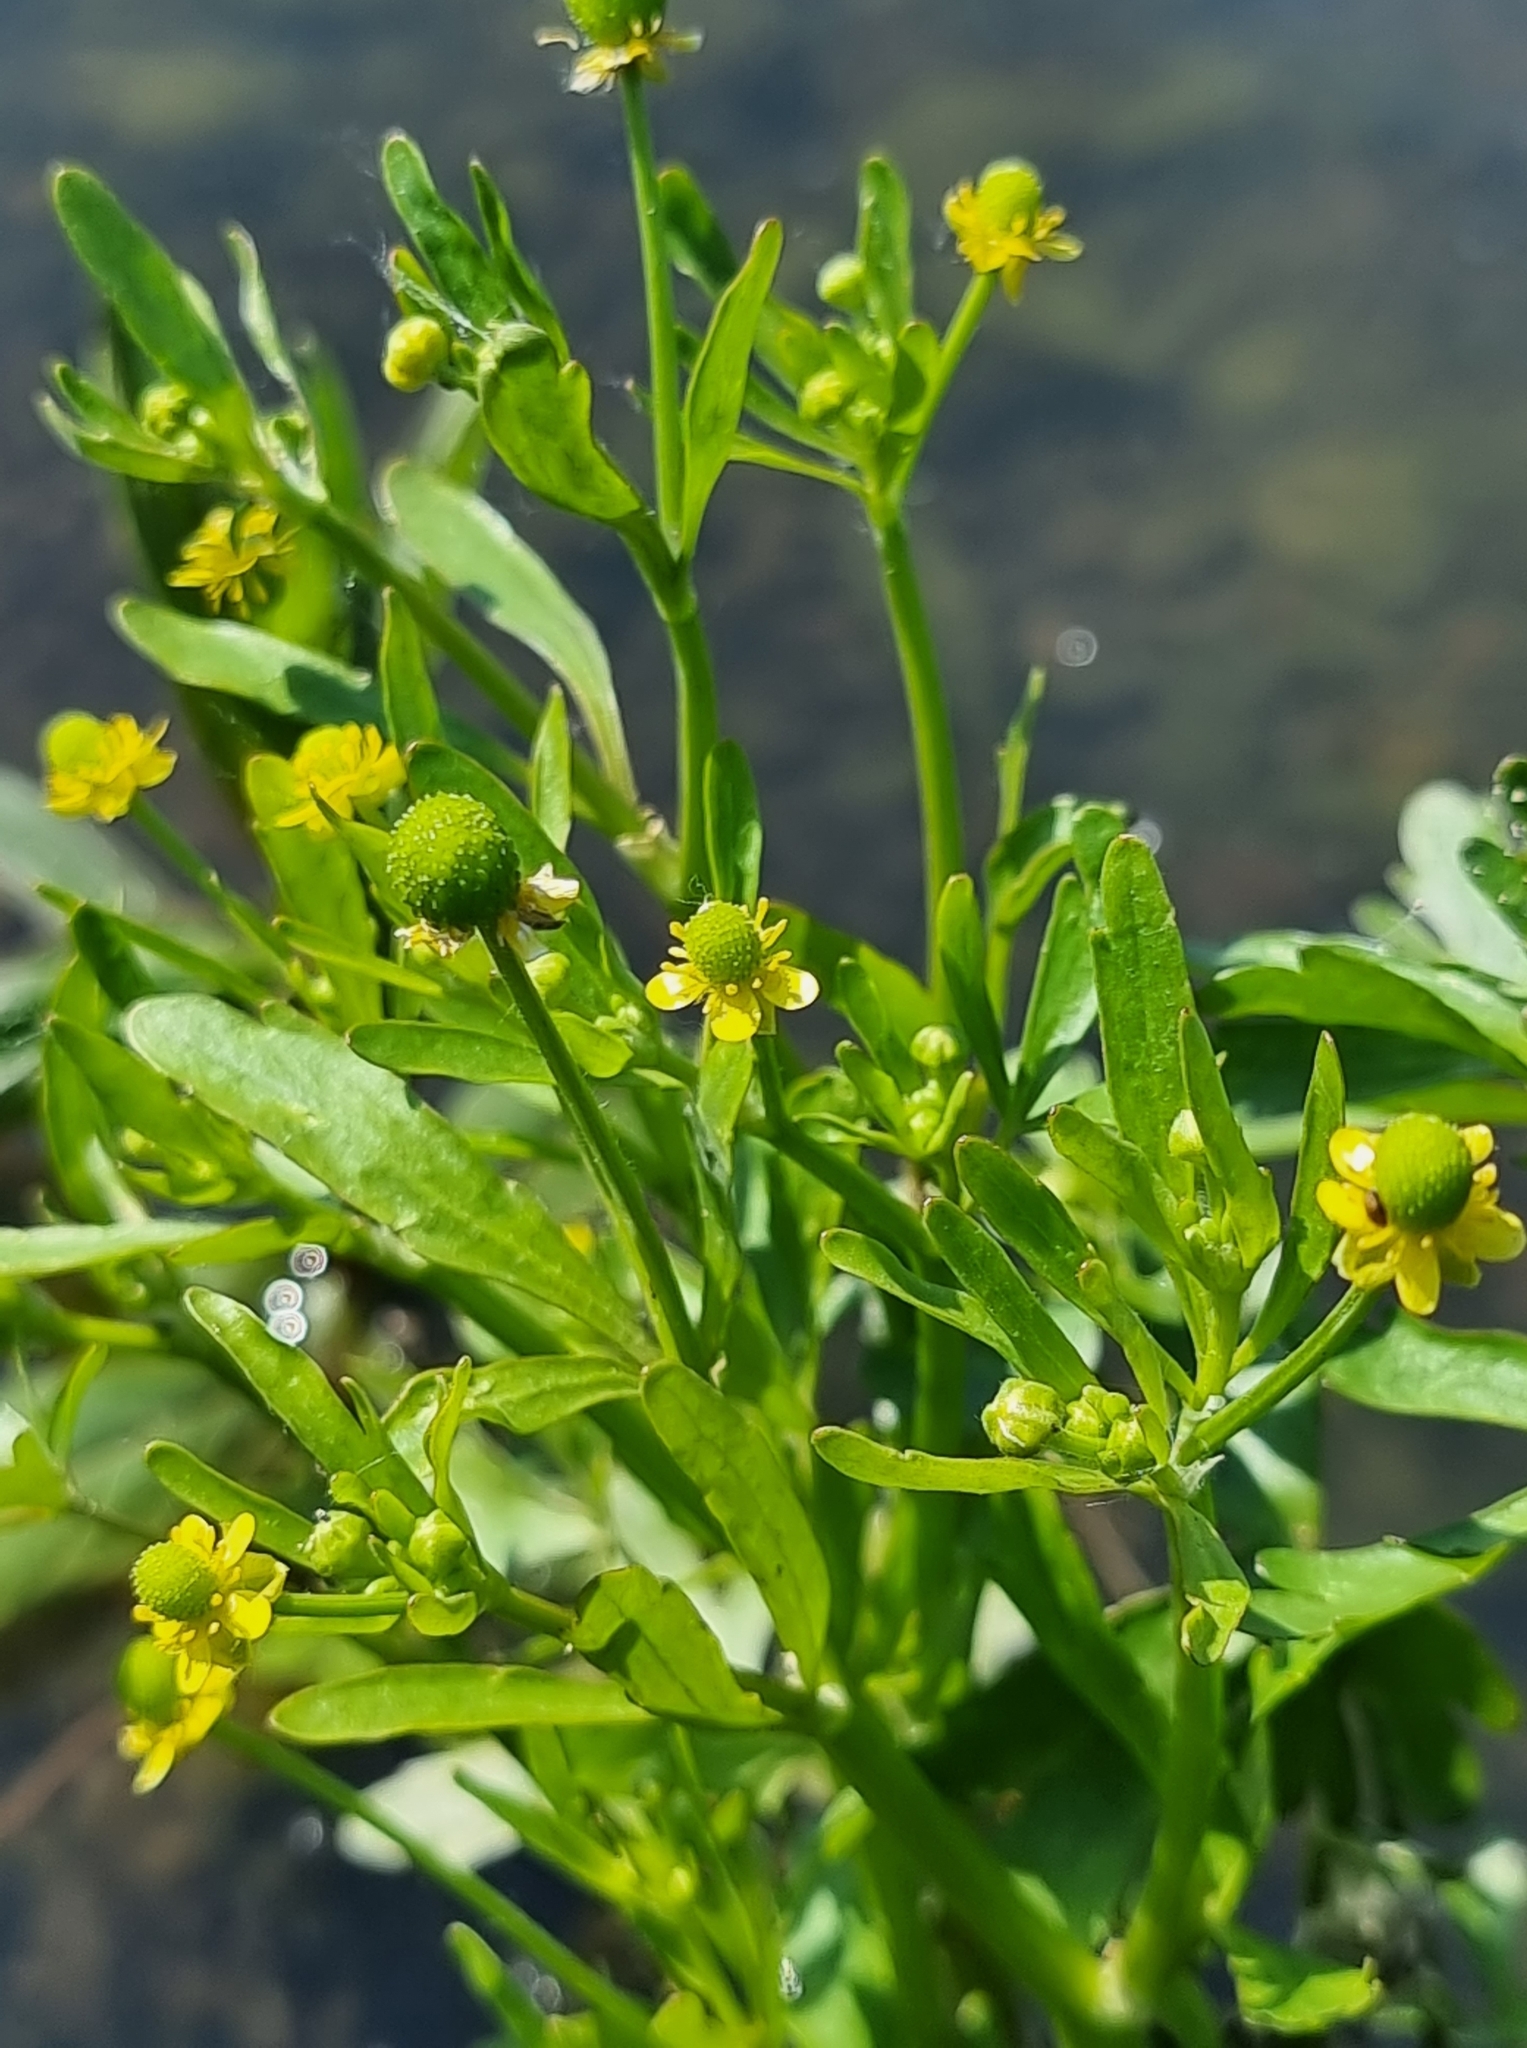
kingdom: Plantae
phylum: Tracheophyta
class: Magnoliopsida
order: Ranunculales
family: Ranunculaceae
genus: Ranunculus
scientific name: Ranunculus sceleratus
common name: Celery-leaved buttercup
